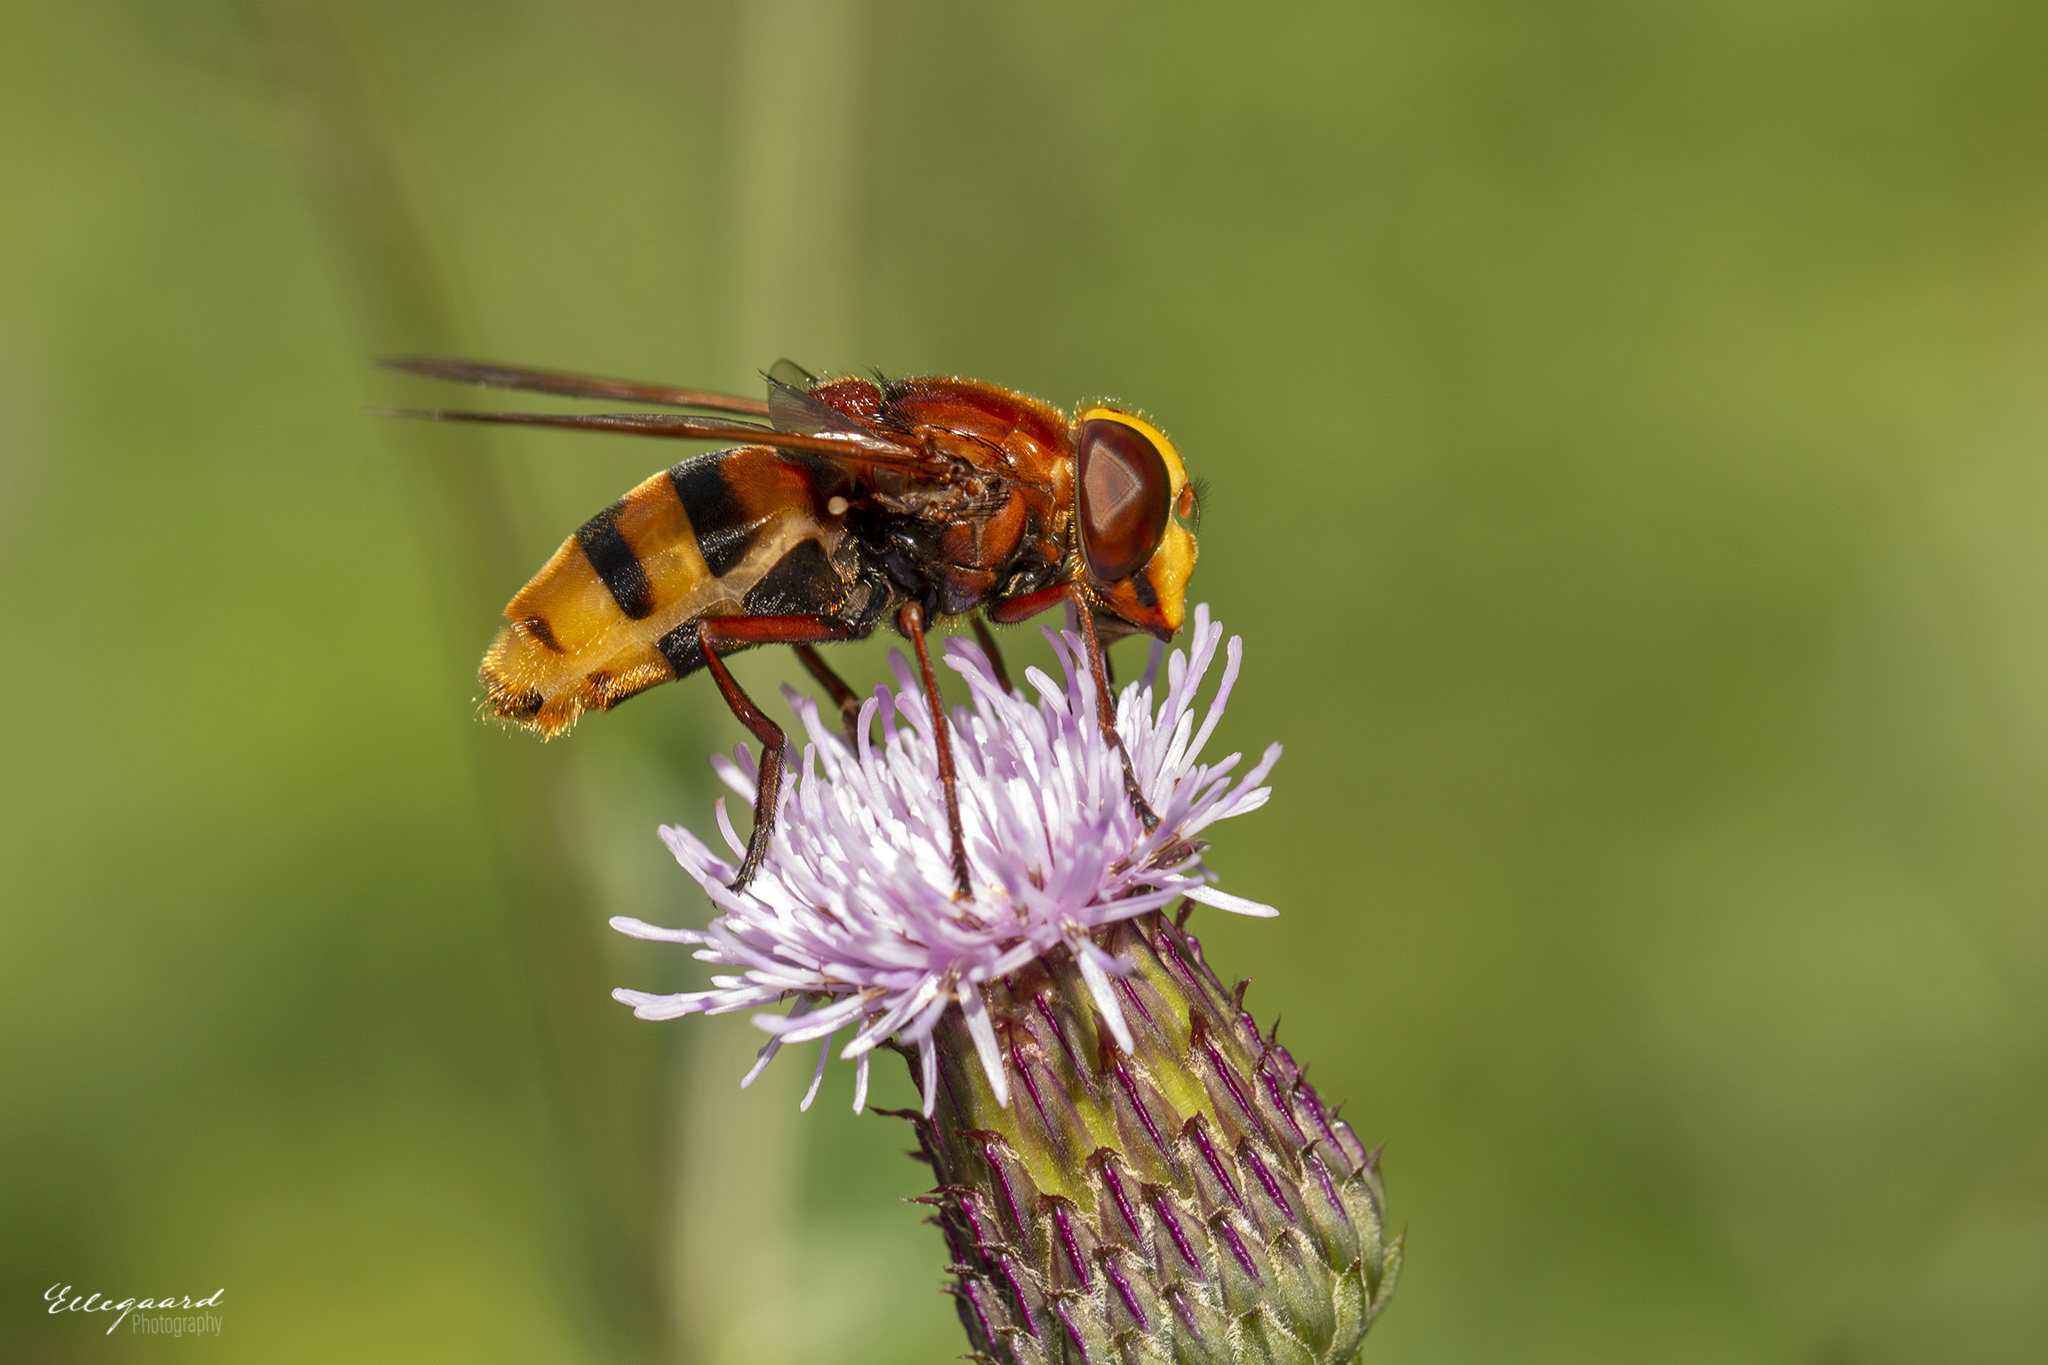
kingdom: Animalia
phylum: Arthropoda
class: Insecta
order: Diptera
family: Syrphidae
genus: Volucella
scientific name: Volucella zonaria
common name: Hornet hoverfly
